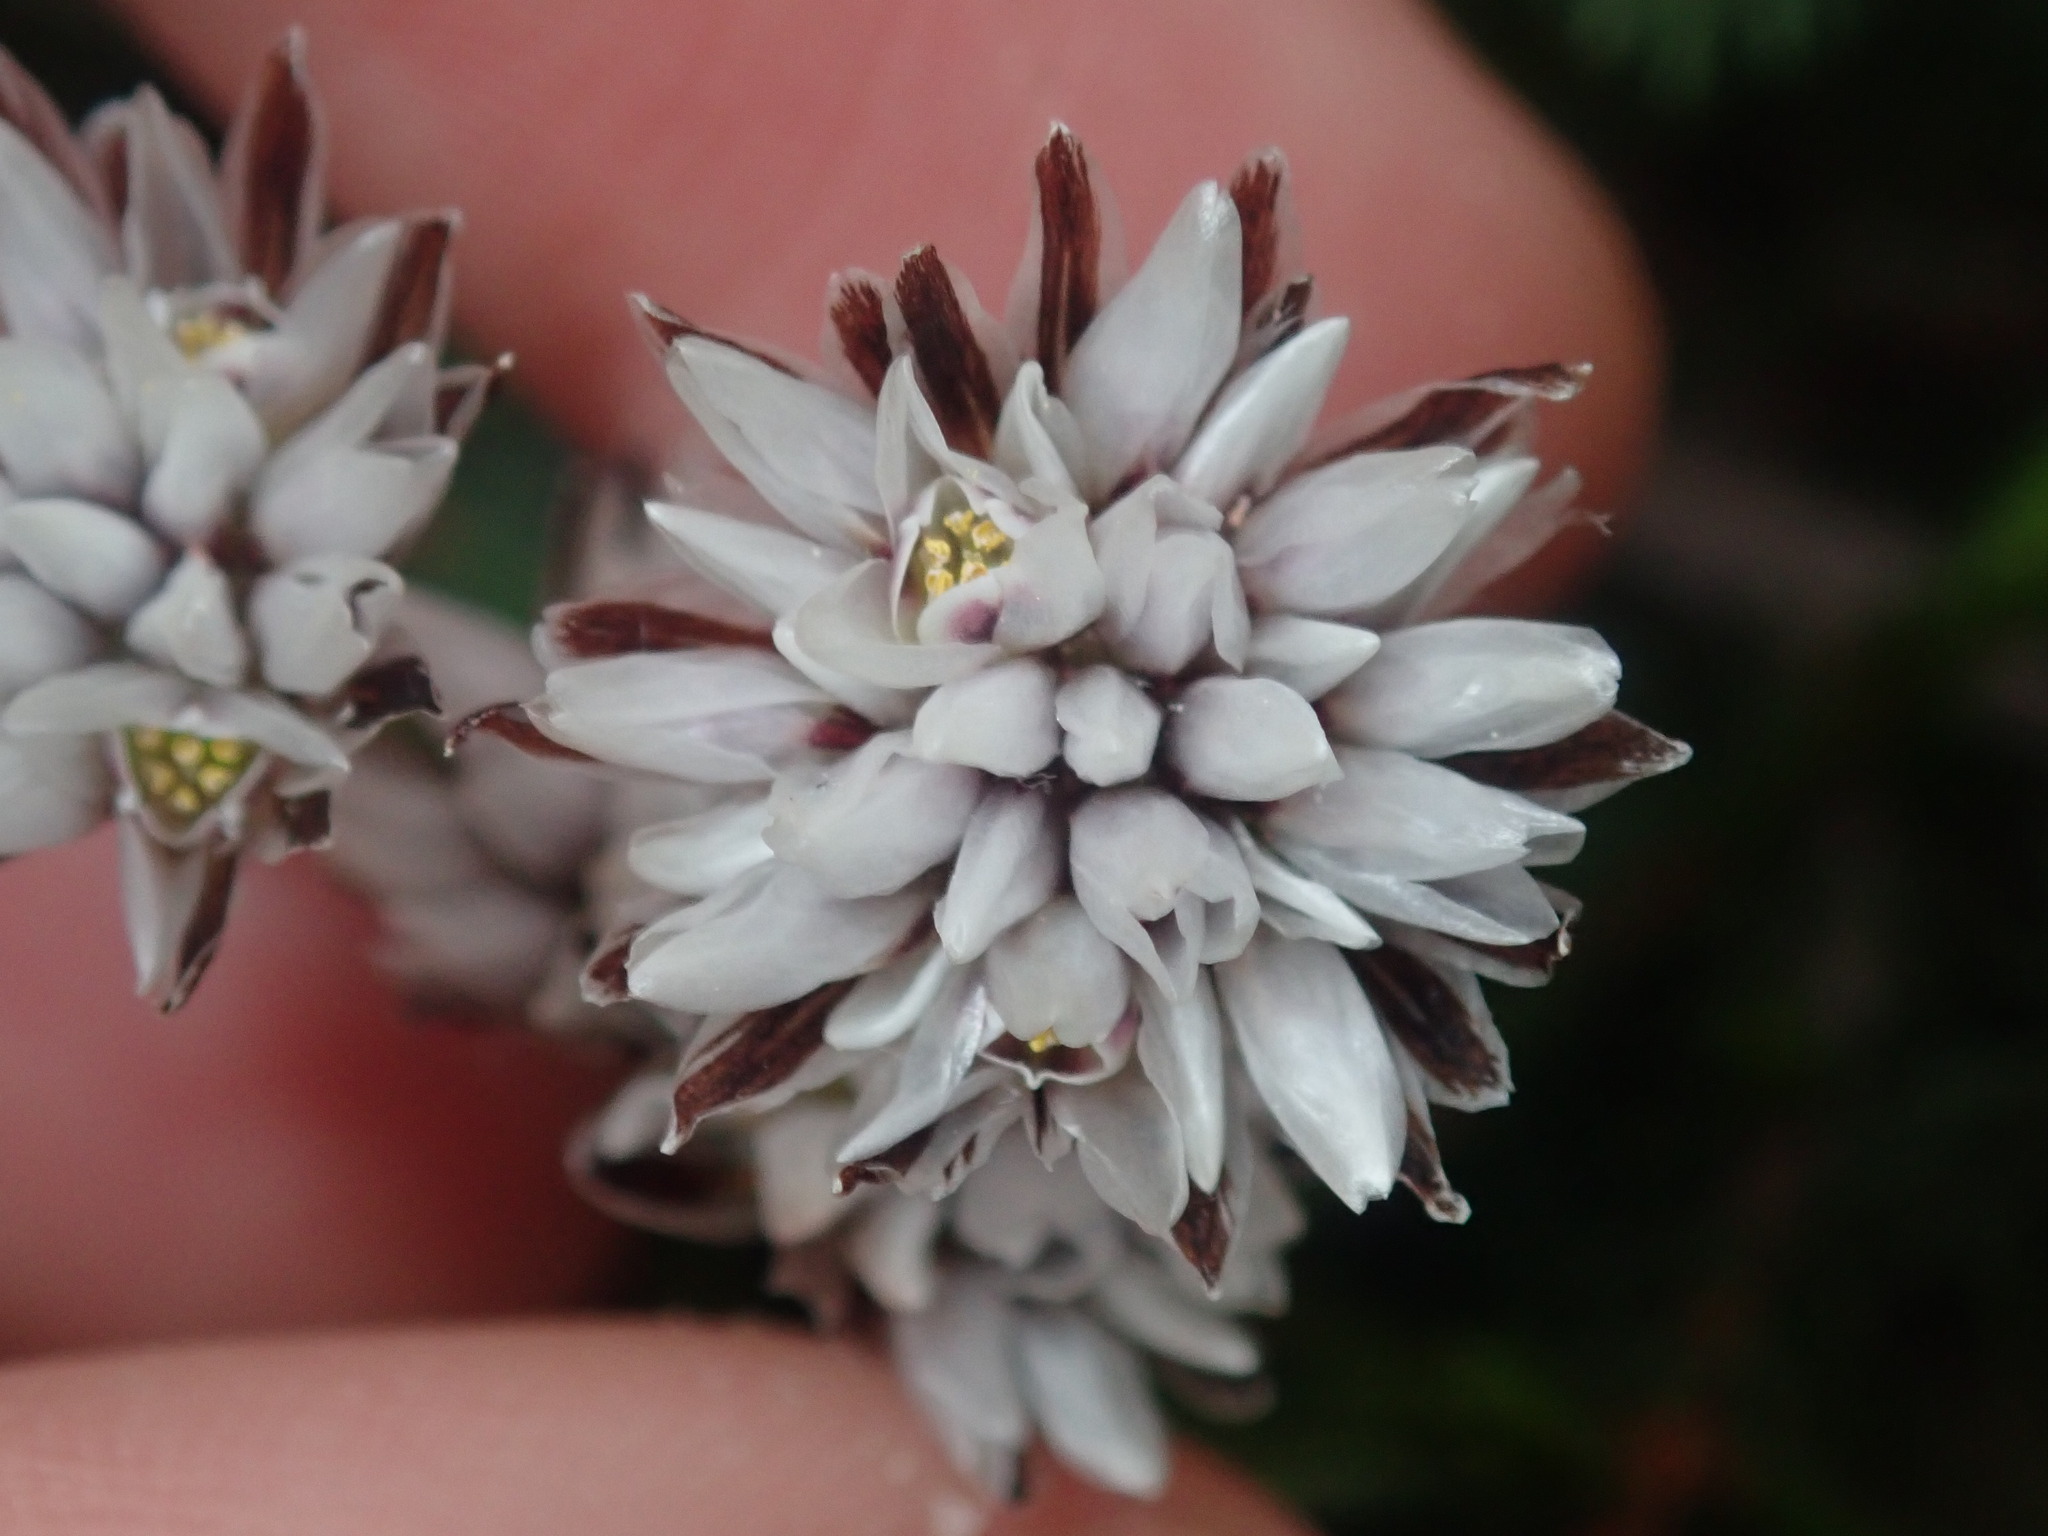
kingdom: Plantae
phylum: Tracheophyta
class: Liliopsida
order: Asparagales
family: Asparagaceae
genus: Laxmannia
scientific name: Laxmannia omnifertilis
